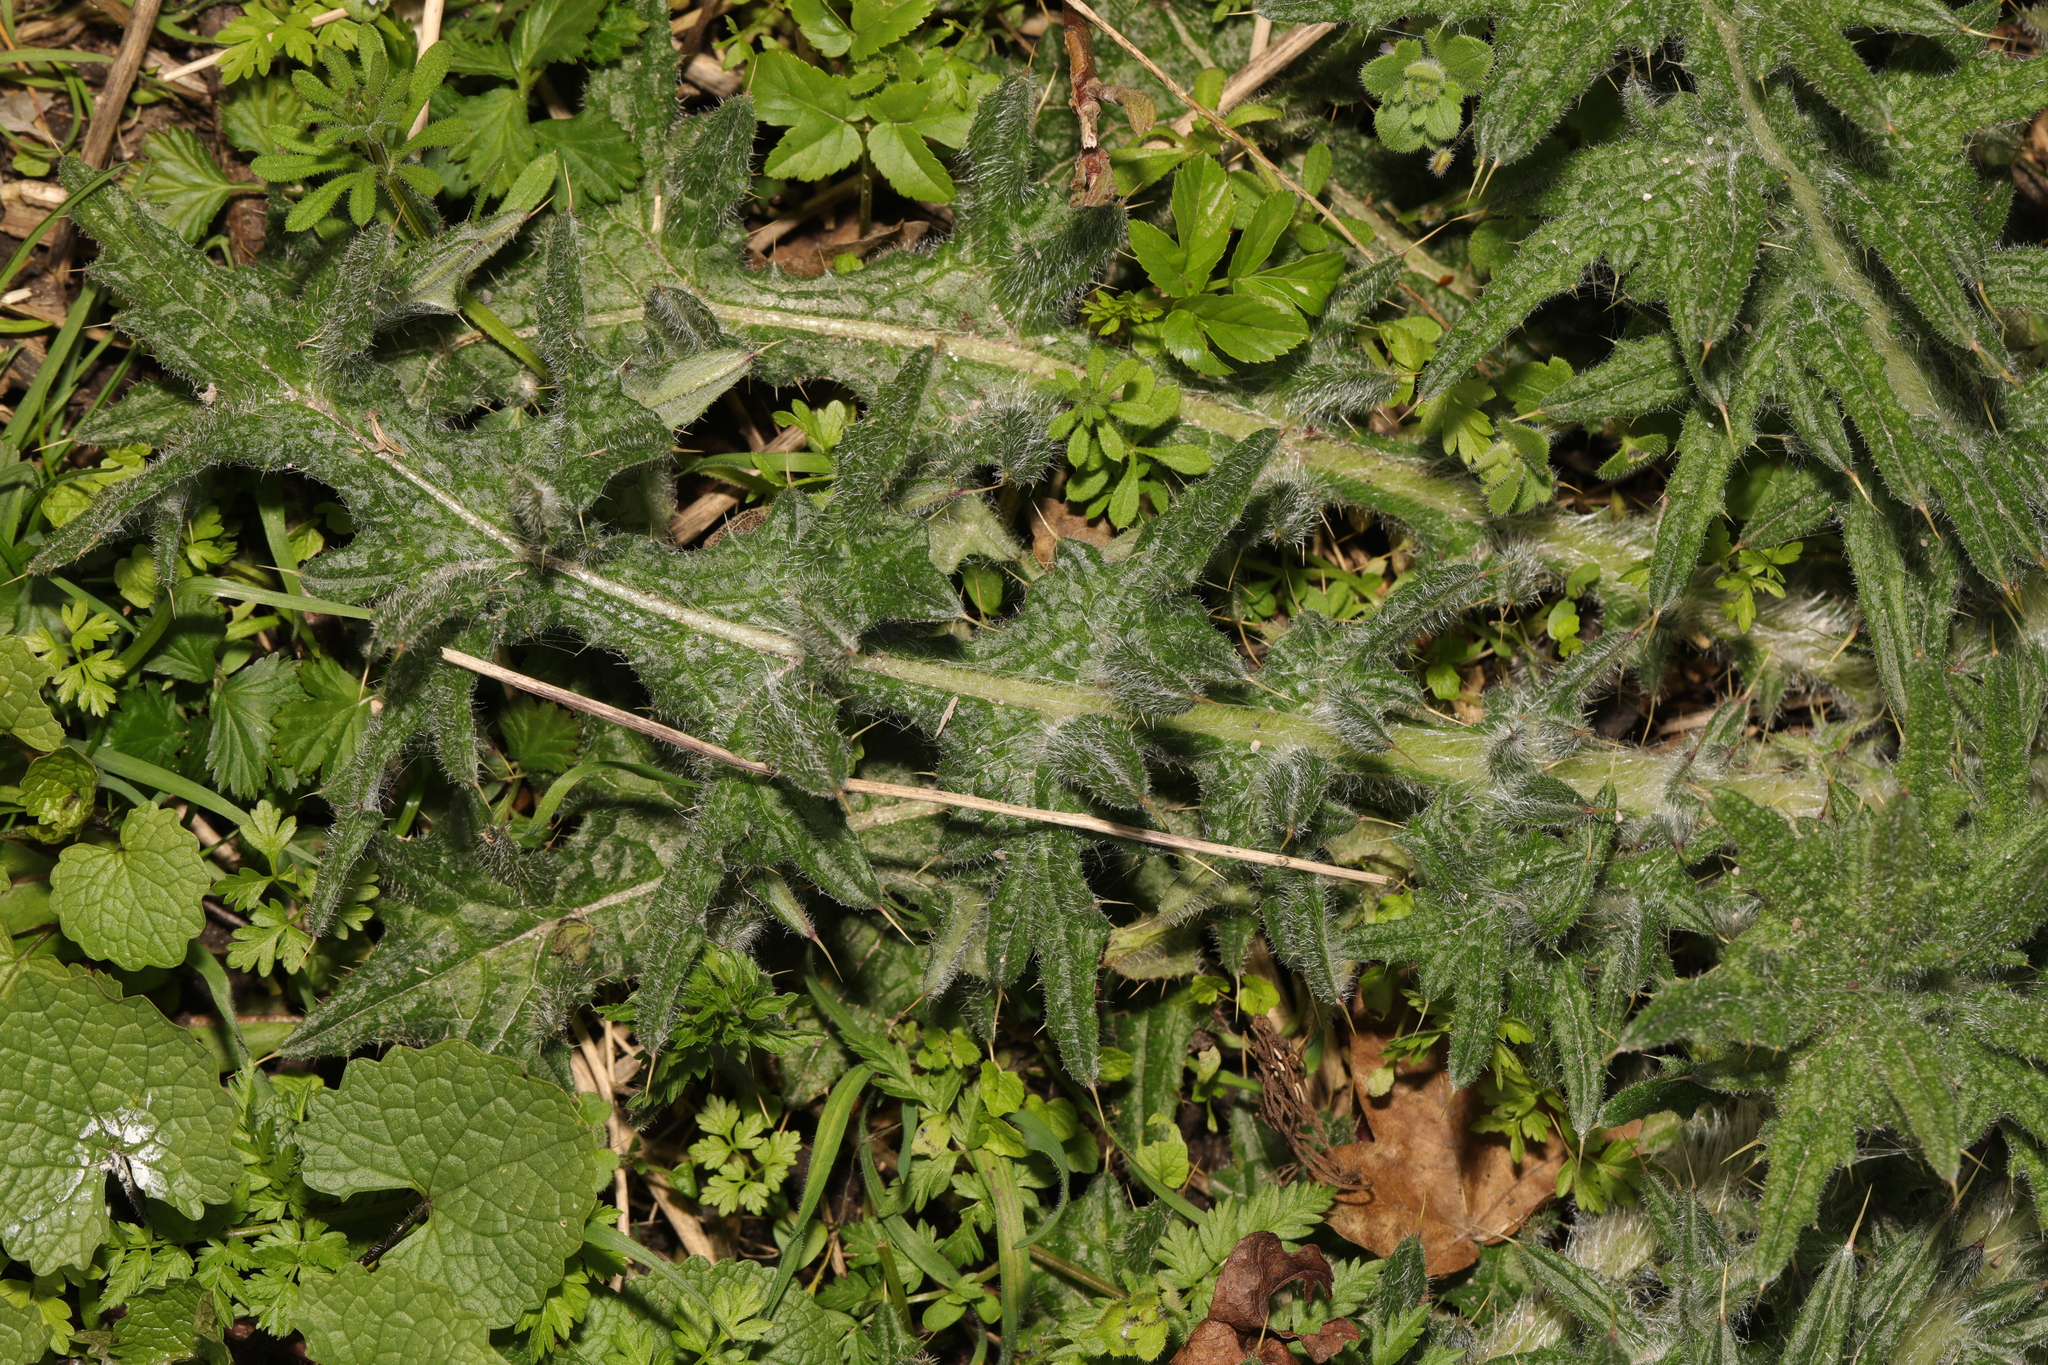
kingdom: Plantae
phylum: Tracheophyta
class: Magnoliopsida
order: Asterales
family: Asteraceae
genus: Cirsium
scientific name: Cirsium vulgare
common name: Bull thistle
